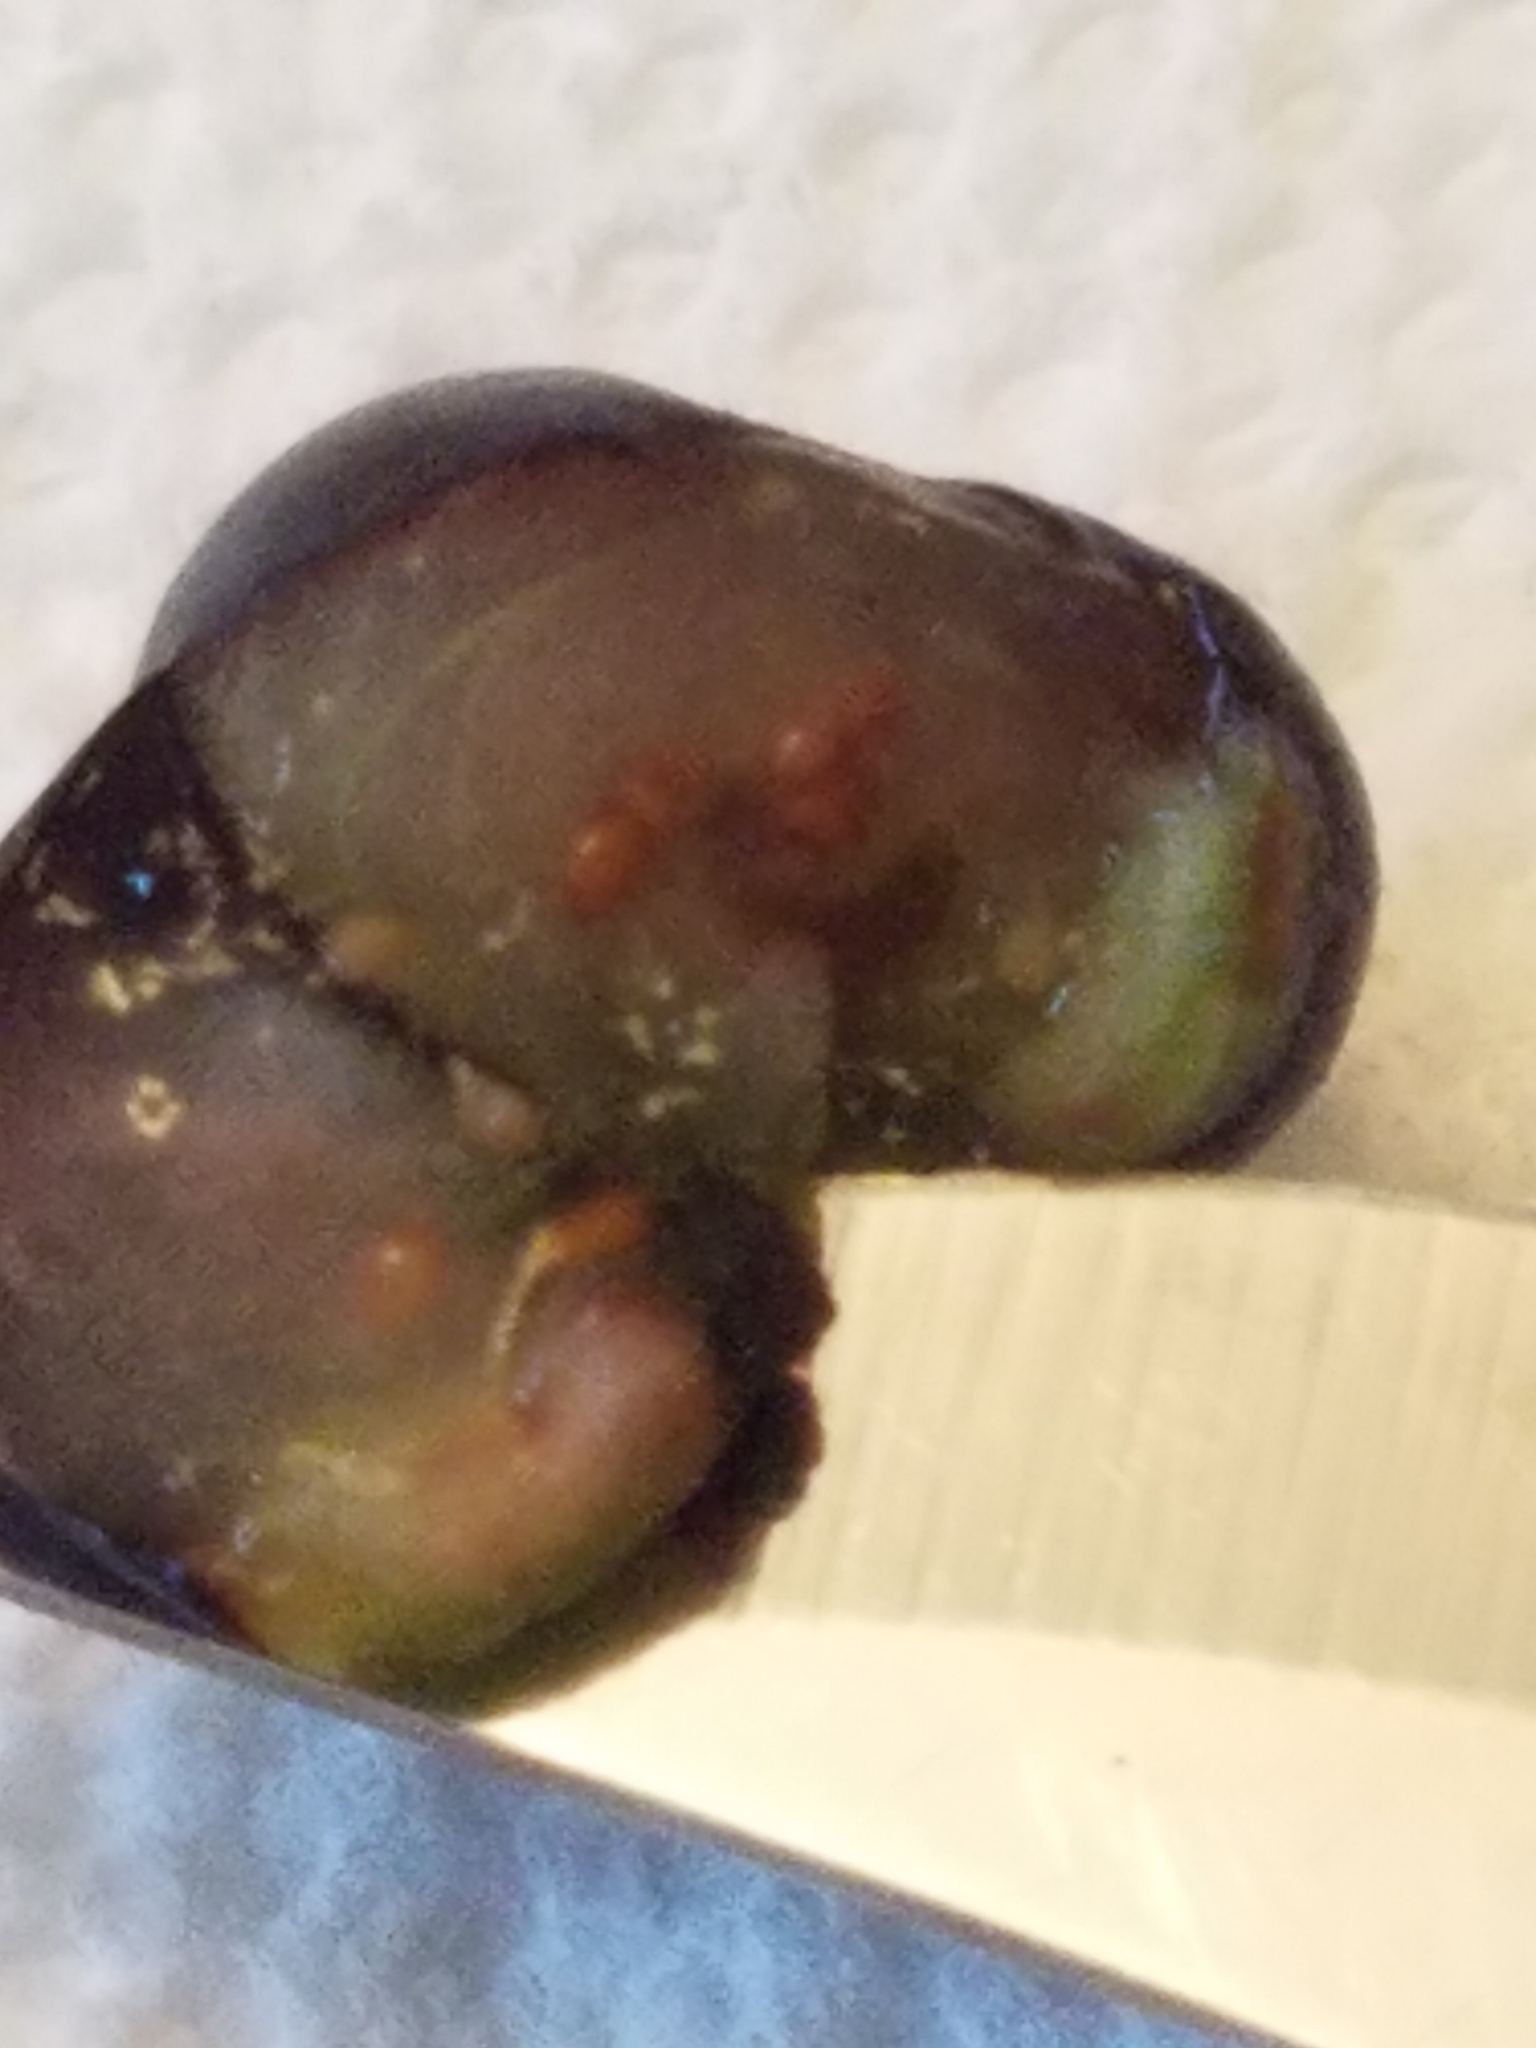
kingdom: Fungi
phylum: Basidiomycota
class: Exobasidiomycetes
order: Exobasidiales
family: Exobasidiaceae
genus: Exobasidium
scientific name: Exobasidium maculosum
